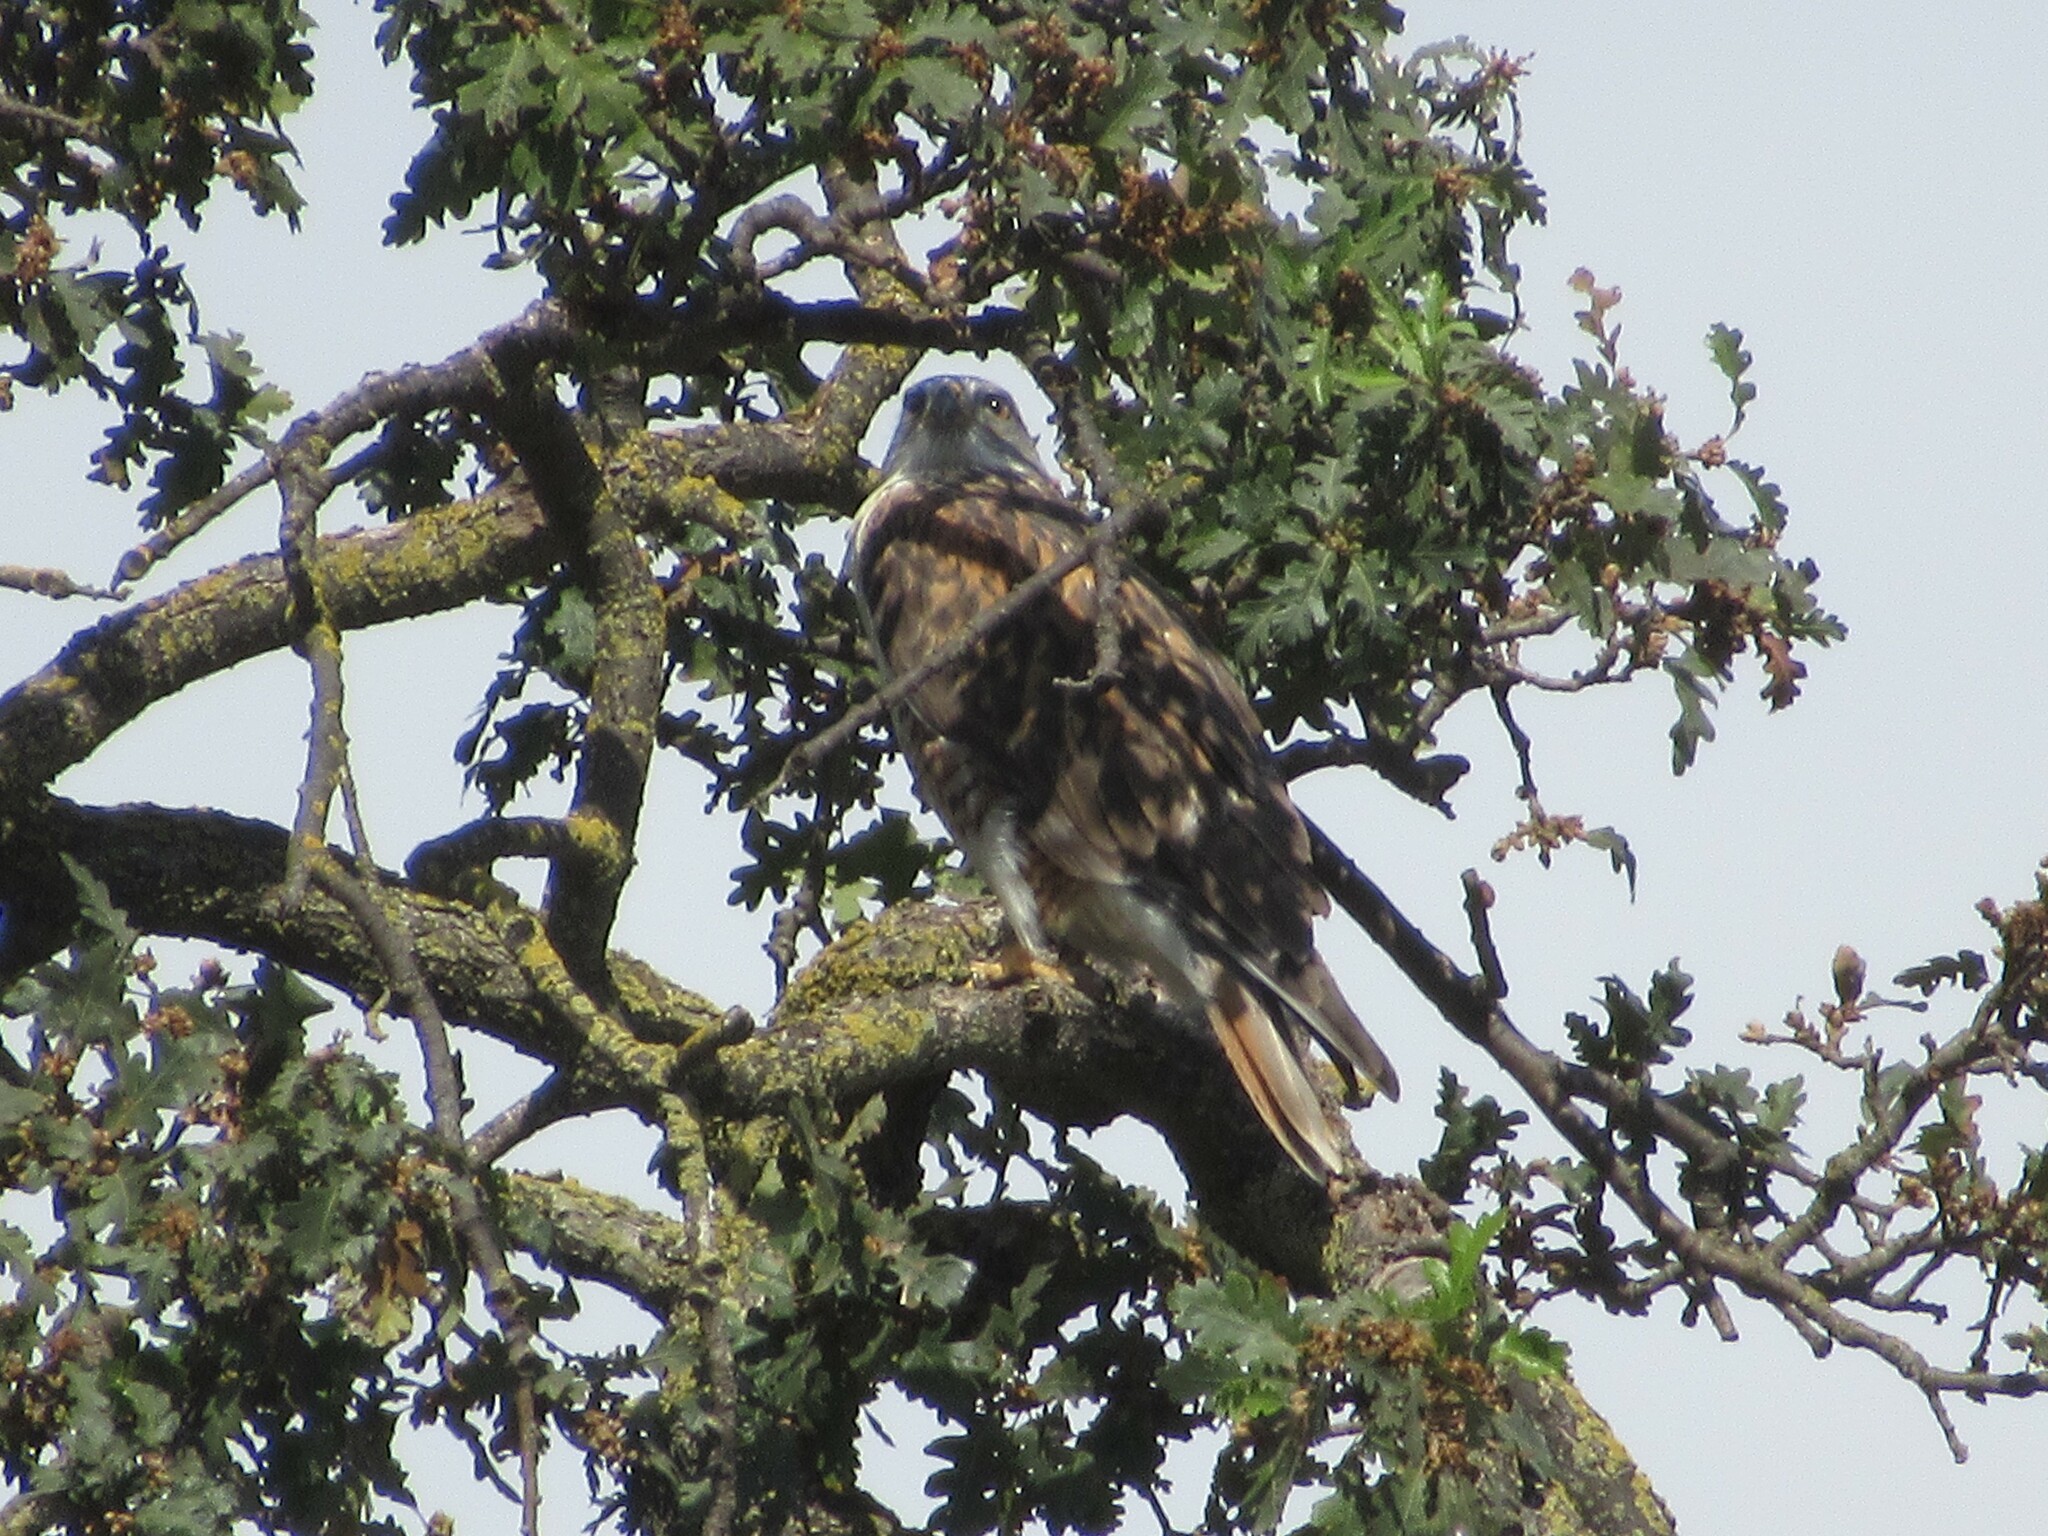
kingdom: Animalia
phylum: Chordata
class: Aves
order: Accipitriformes
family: Accipitridae
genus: Buteo
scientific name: Buteo regalis
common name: Ferruginous hawk
